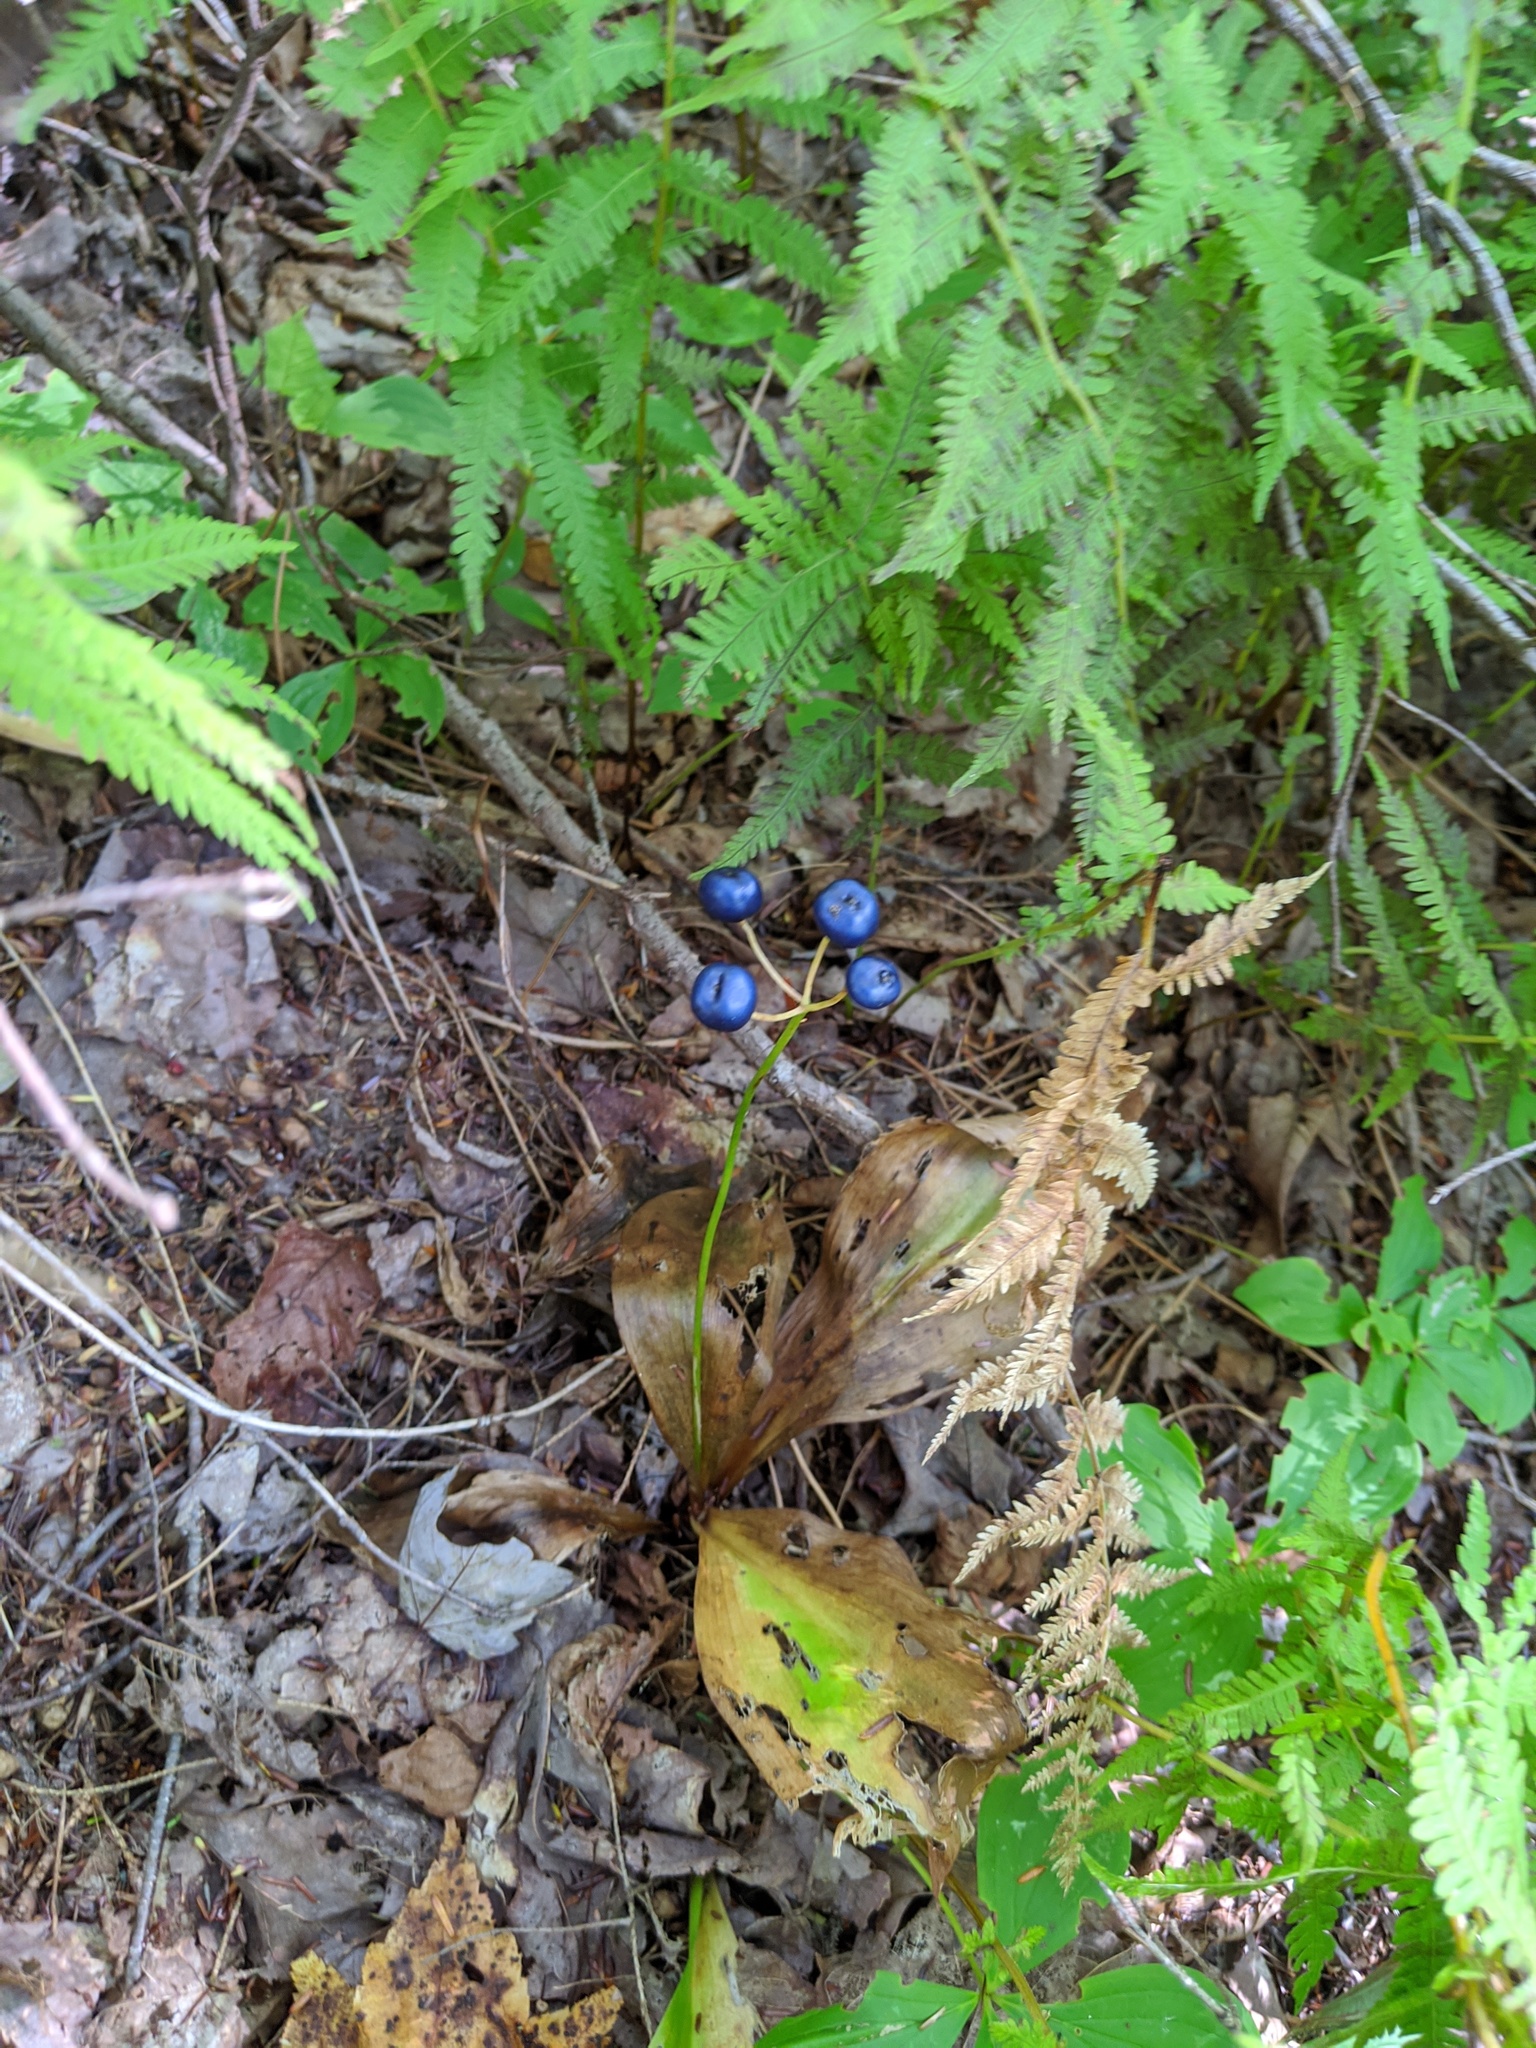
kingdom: Plantae
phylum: Tracheophyta
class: Liliopsida
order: Liliales
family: Liliaceae
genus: Clintonia
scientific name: Clintonia borealis
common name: Yellow clintonia
